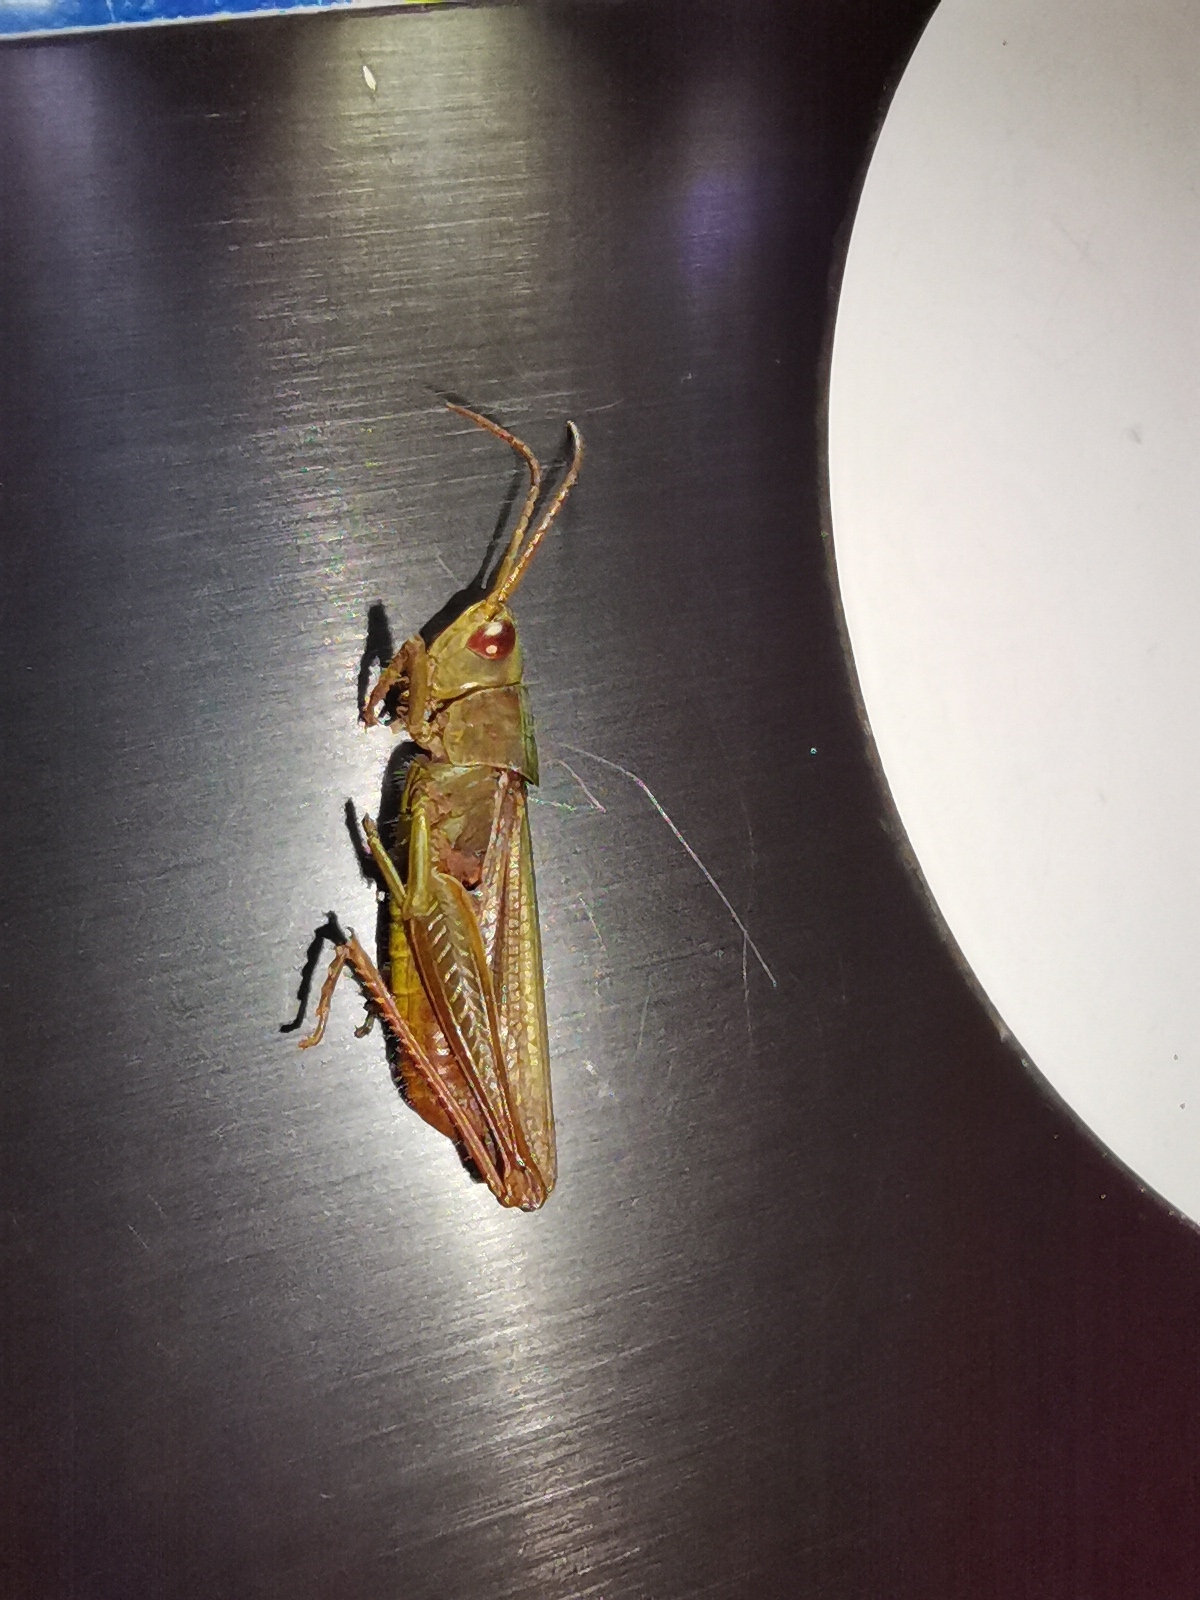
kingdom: Animalia
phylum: Arthropoda
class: Insecta
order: Orthoptera
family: Acrididae
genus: Chorthippus
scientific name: Chorthippus dorsatus
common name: Steppe grasshopper
